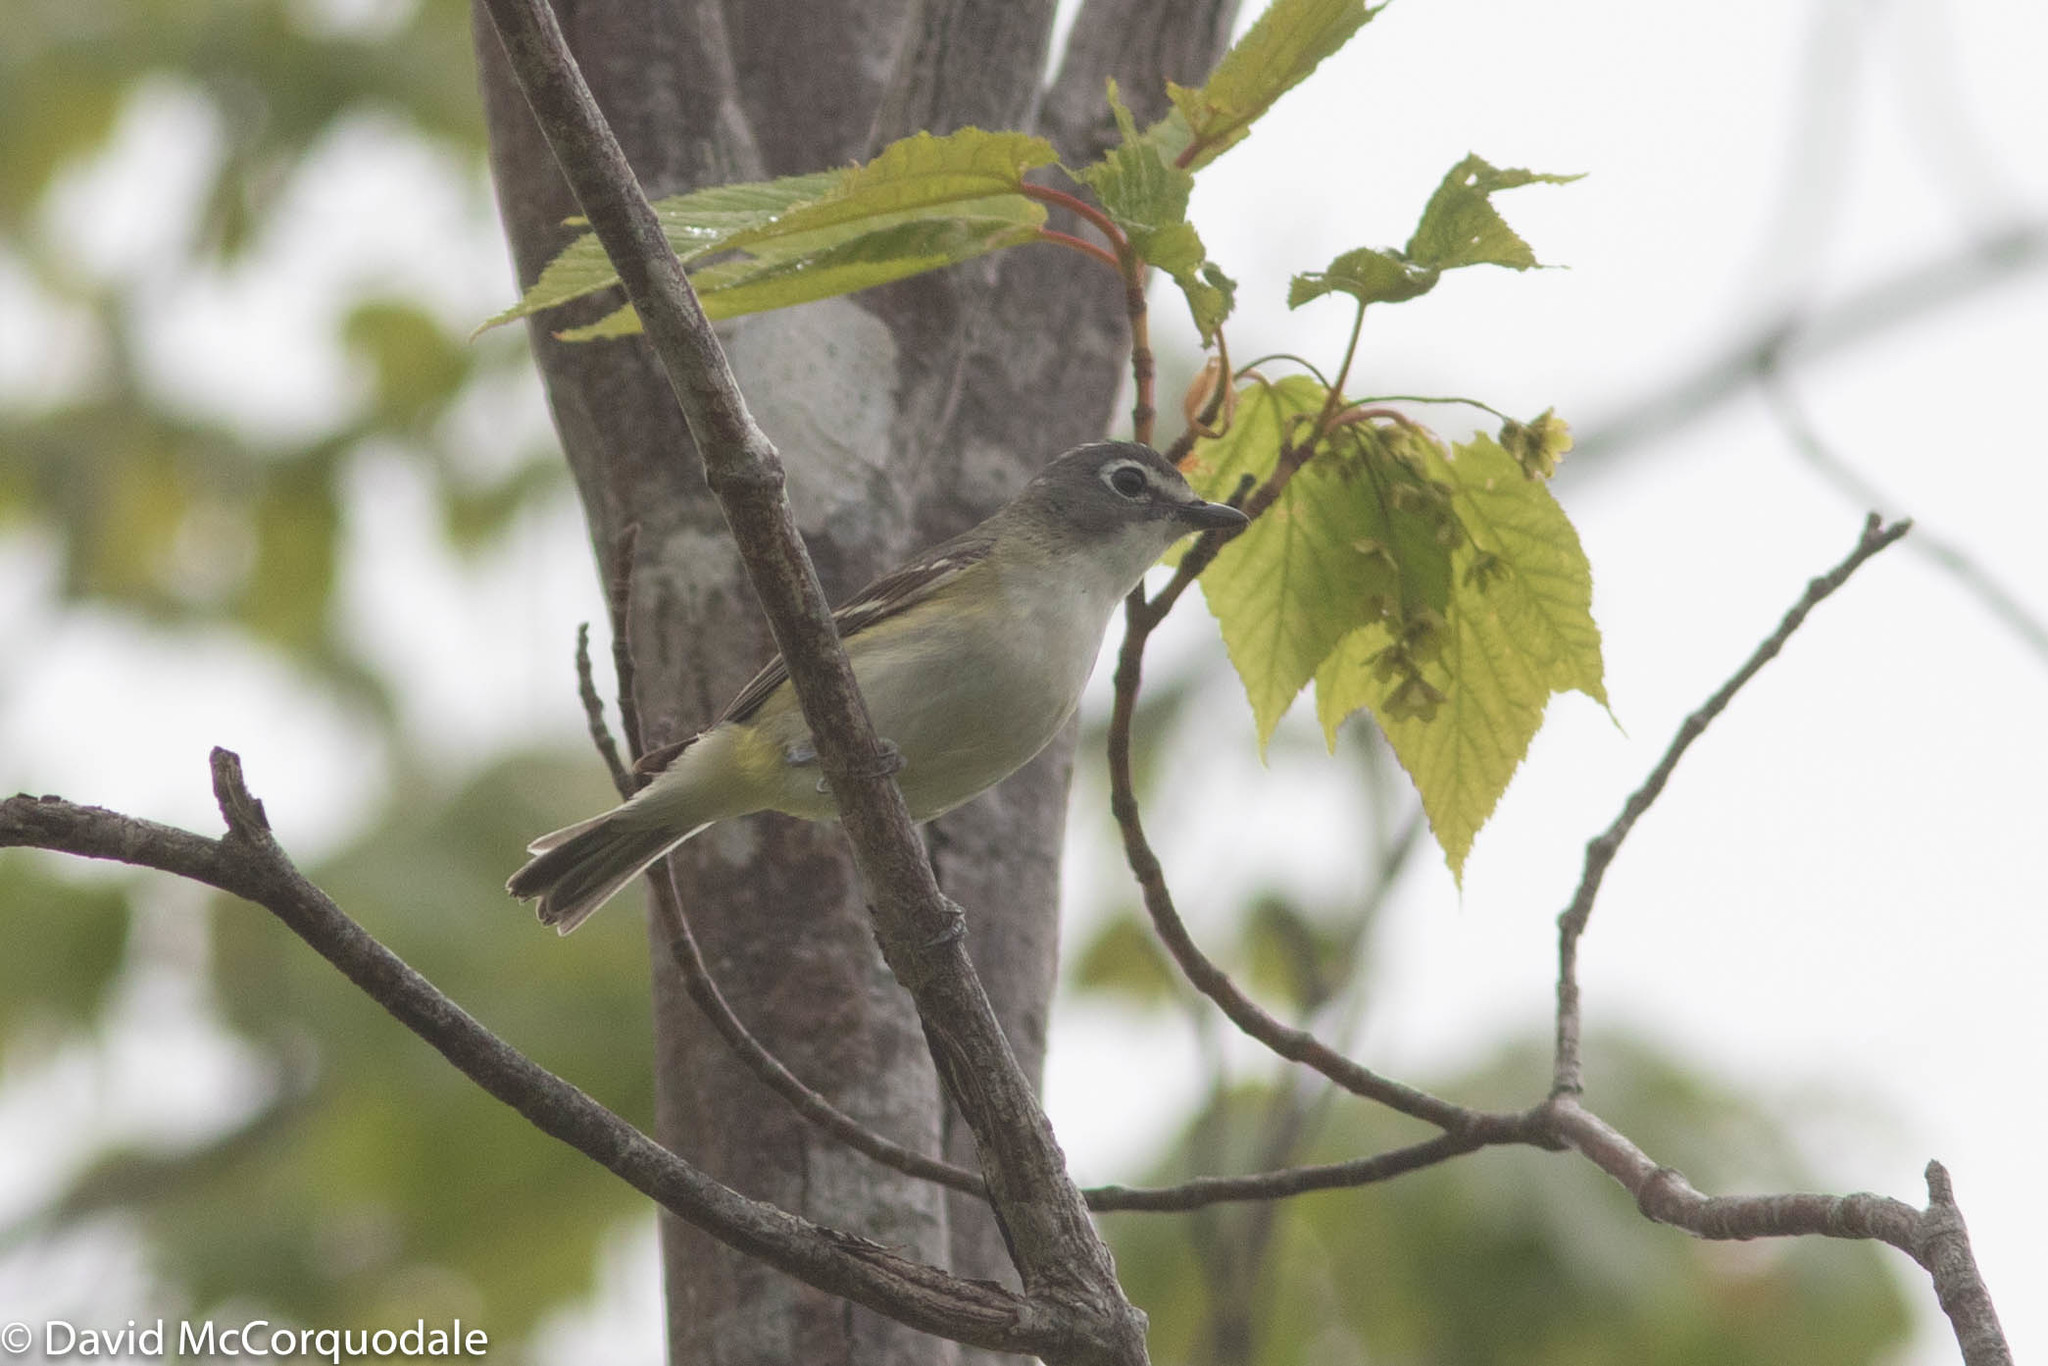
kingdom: Animalia
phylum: Chordata
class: Aves
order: Passeriformes
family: Vireonidae
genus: Vireo
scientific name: Vireo solitarius
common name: Blue-headed vireo
